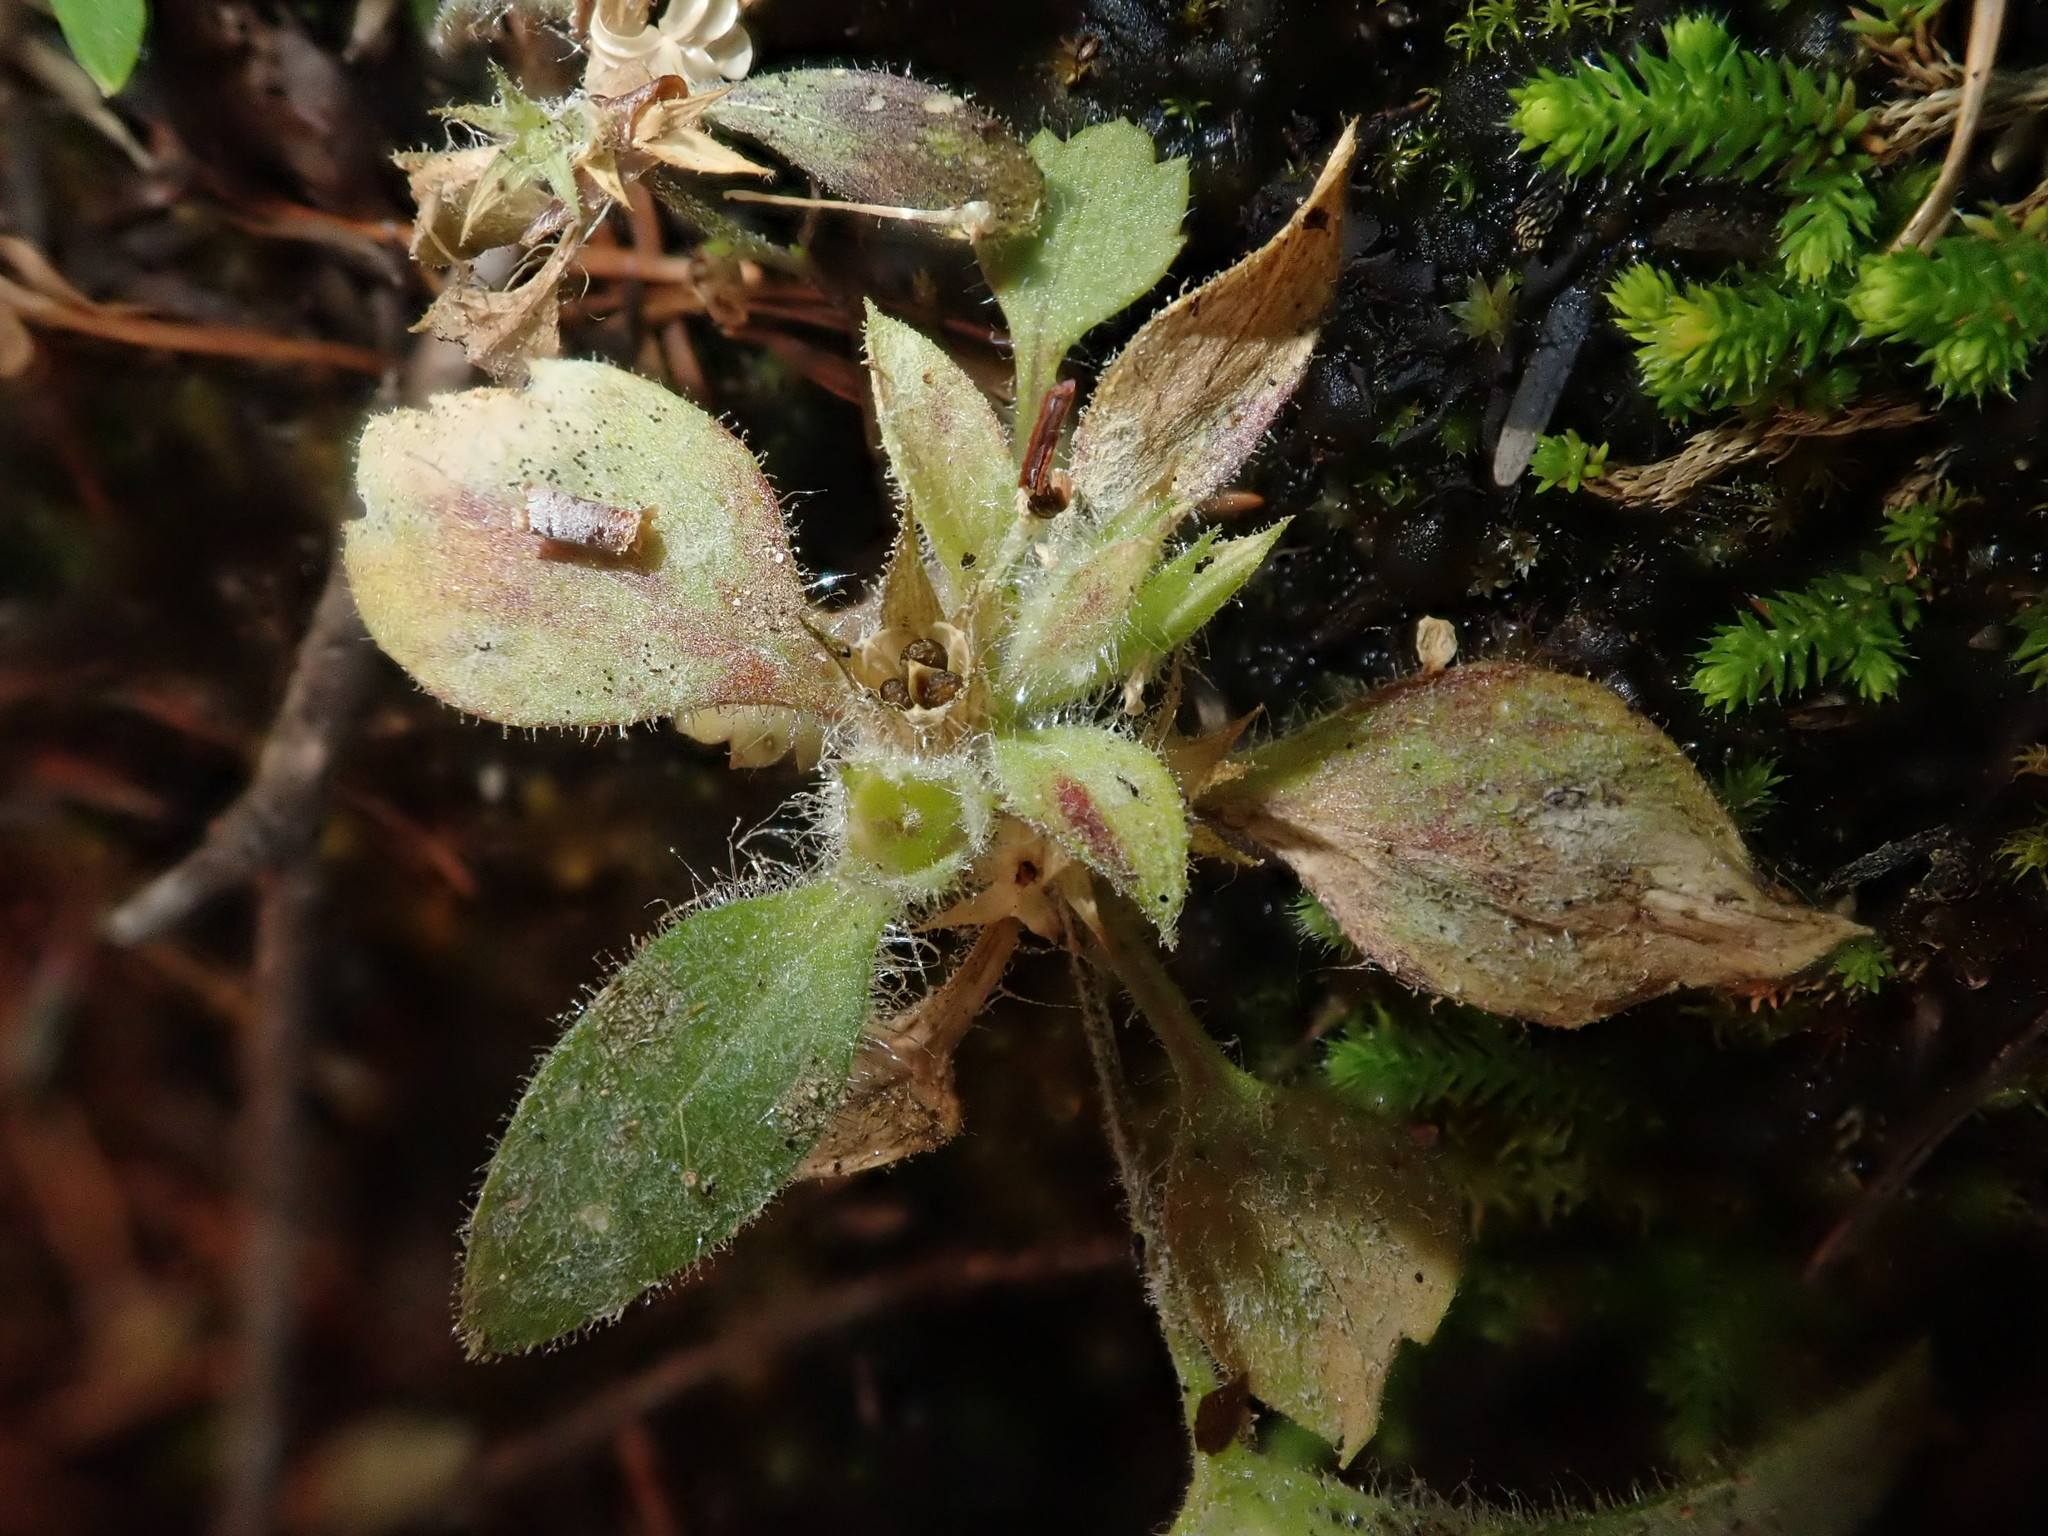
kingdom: Plantae
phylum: Tracheophyta
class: Magnoliopsida
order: Ericales
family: Polemoniaceae
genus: Collomia
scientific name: Collomia heterophylla
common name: Variable-leaved collomia
